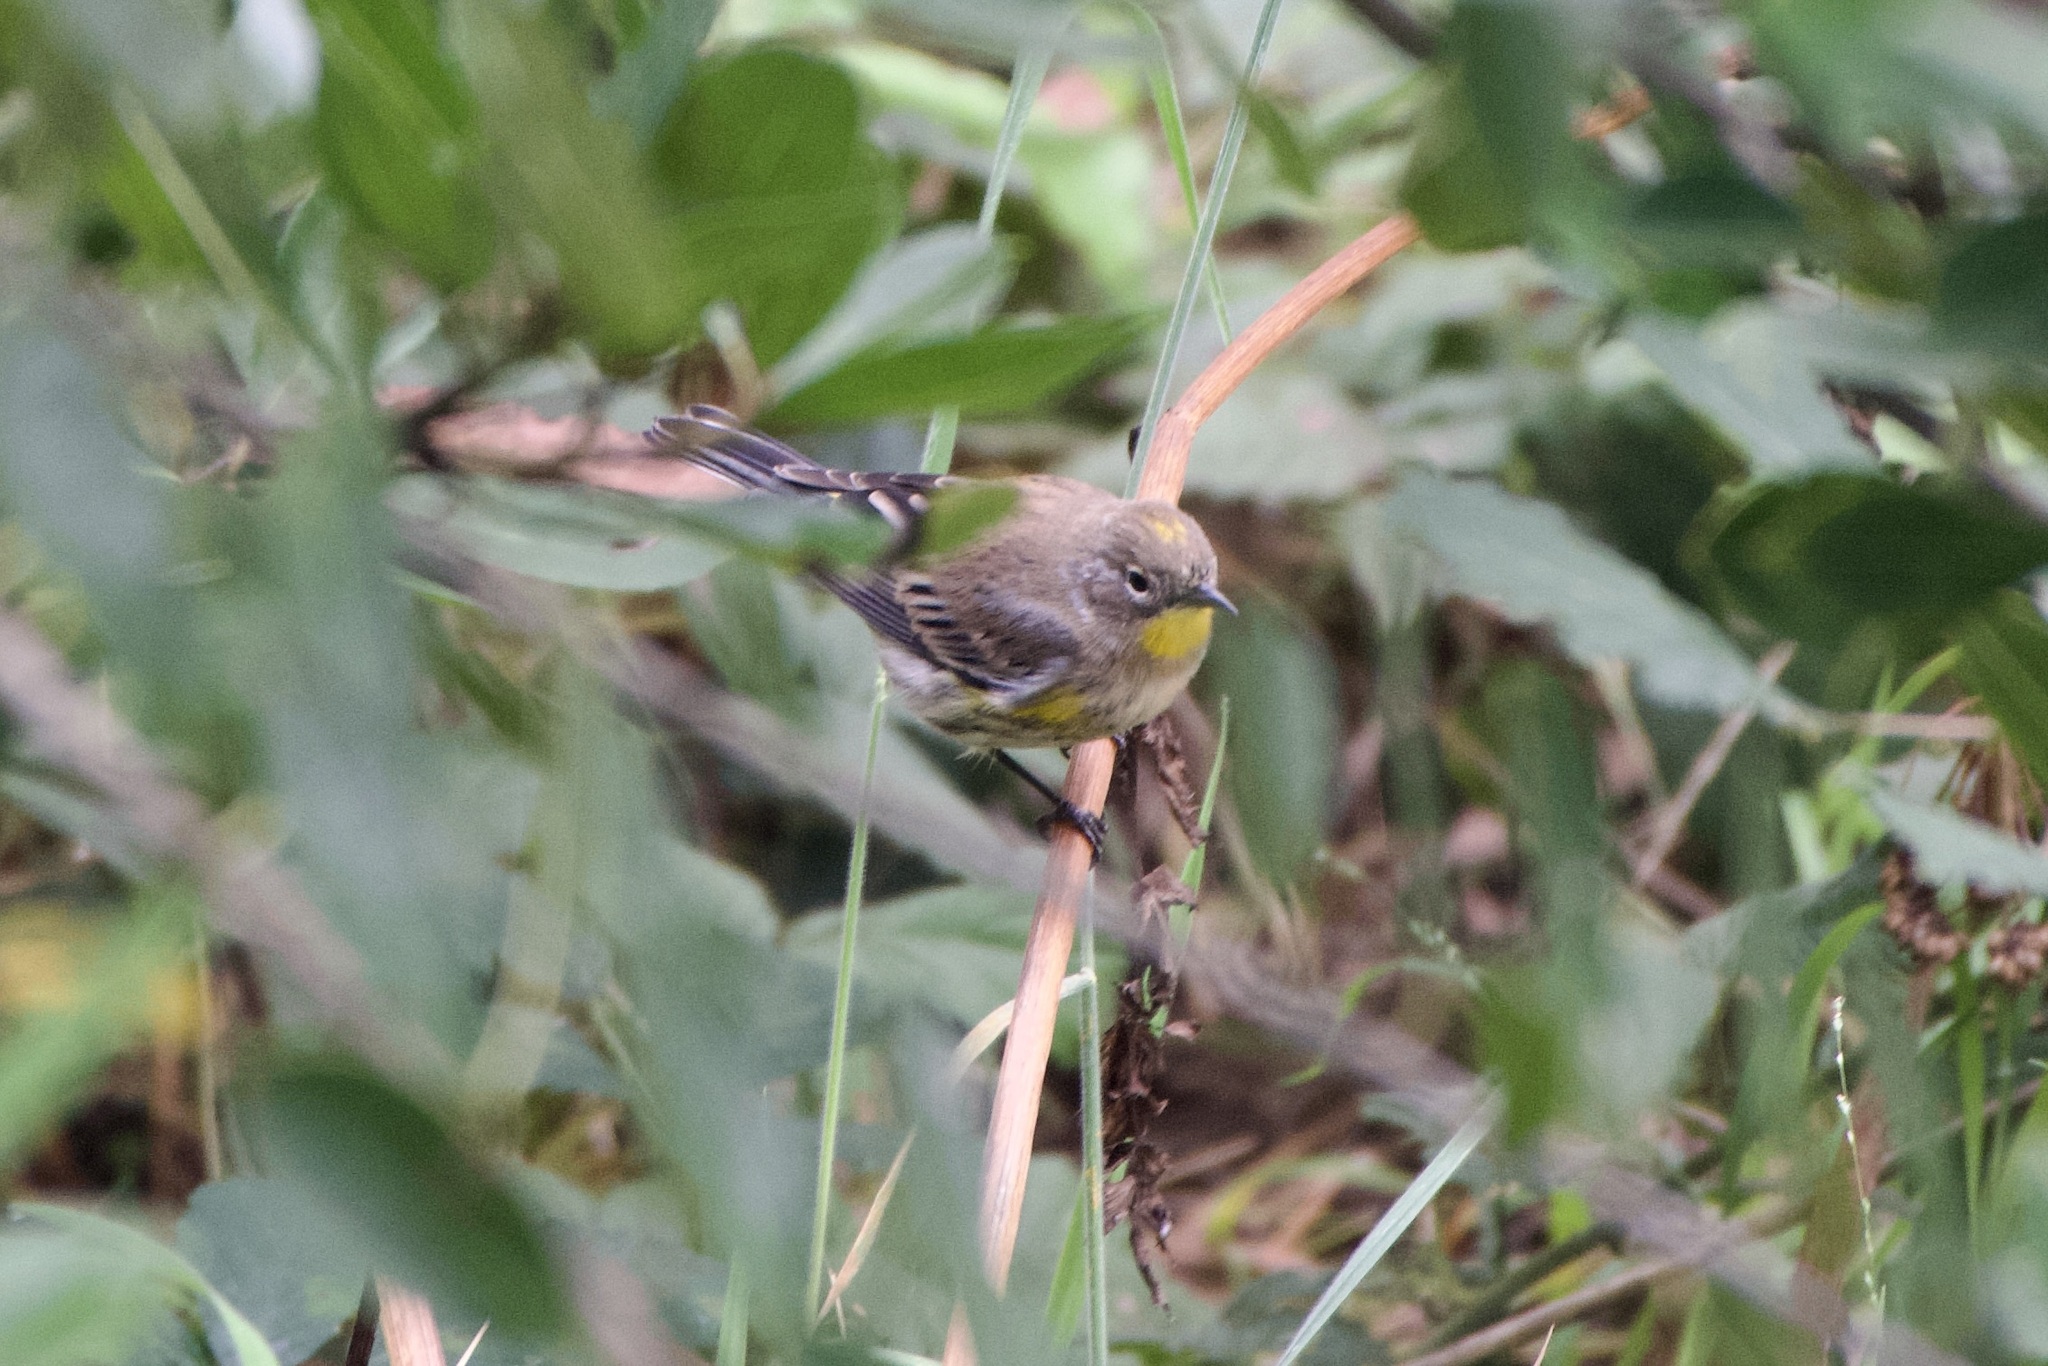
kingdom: Animalia
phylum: Chordata
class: Aves
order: Passeriformes
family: Parulidae
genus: Setophaga
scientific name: Setophaga auduboni
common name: Audubon's warbler
